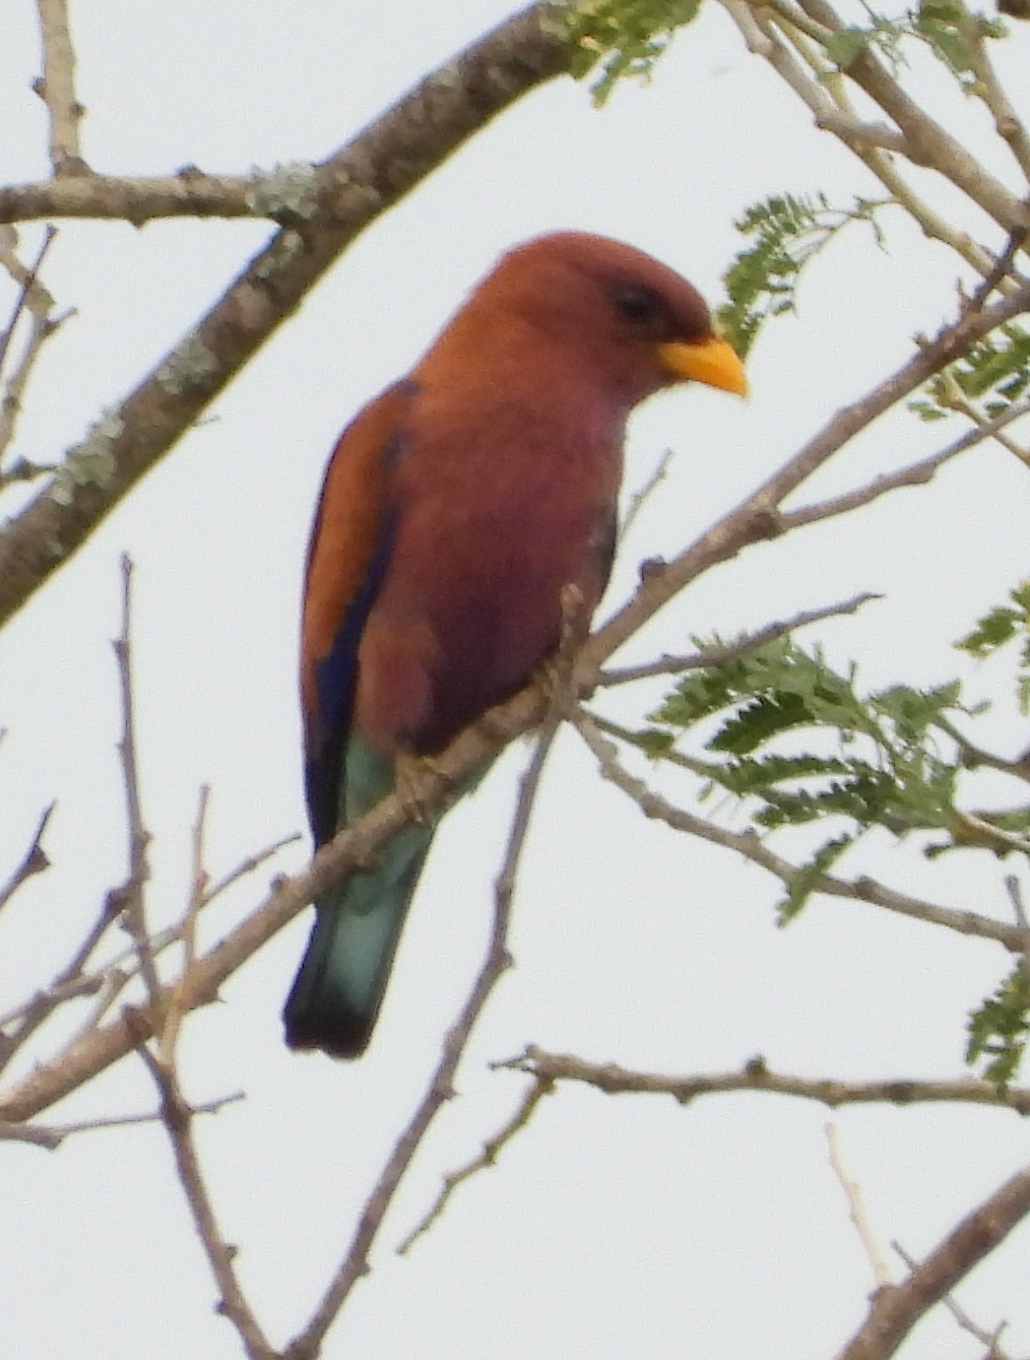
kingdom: Animalia
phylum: Chordata
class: Aves
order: Coraciiformes
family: Coraciidae
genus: Eurystomus
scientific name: Eurystomus glaucurus
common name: Broad-billed roller
